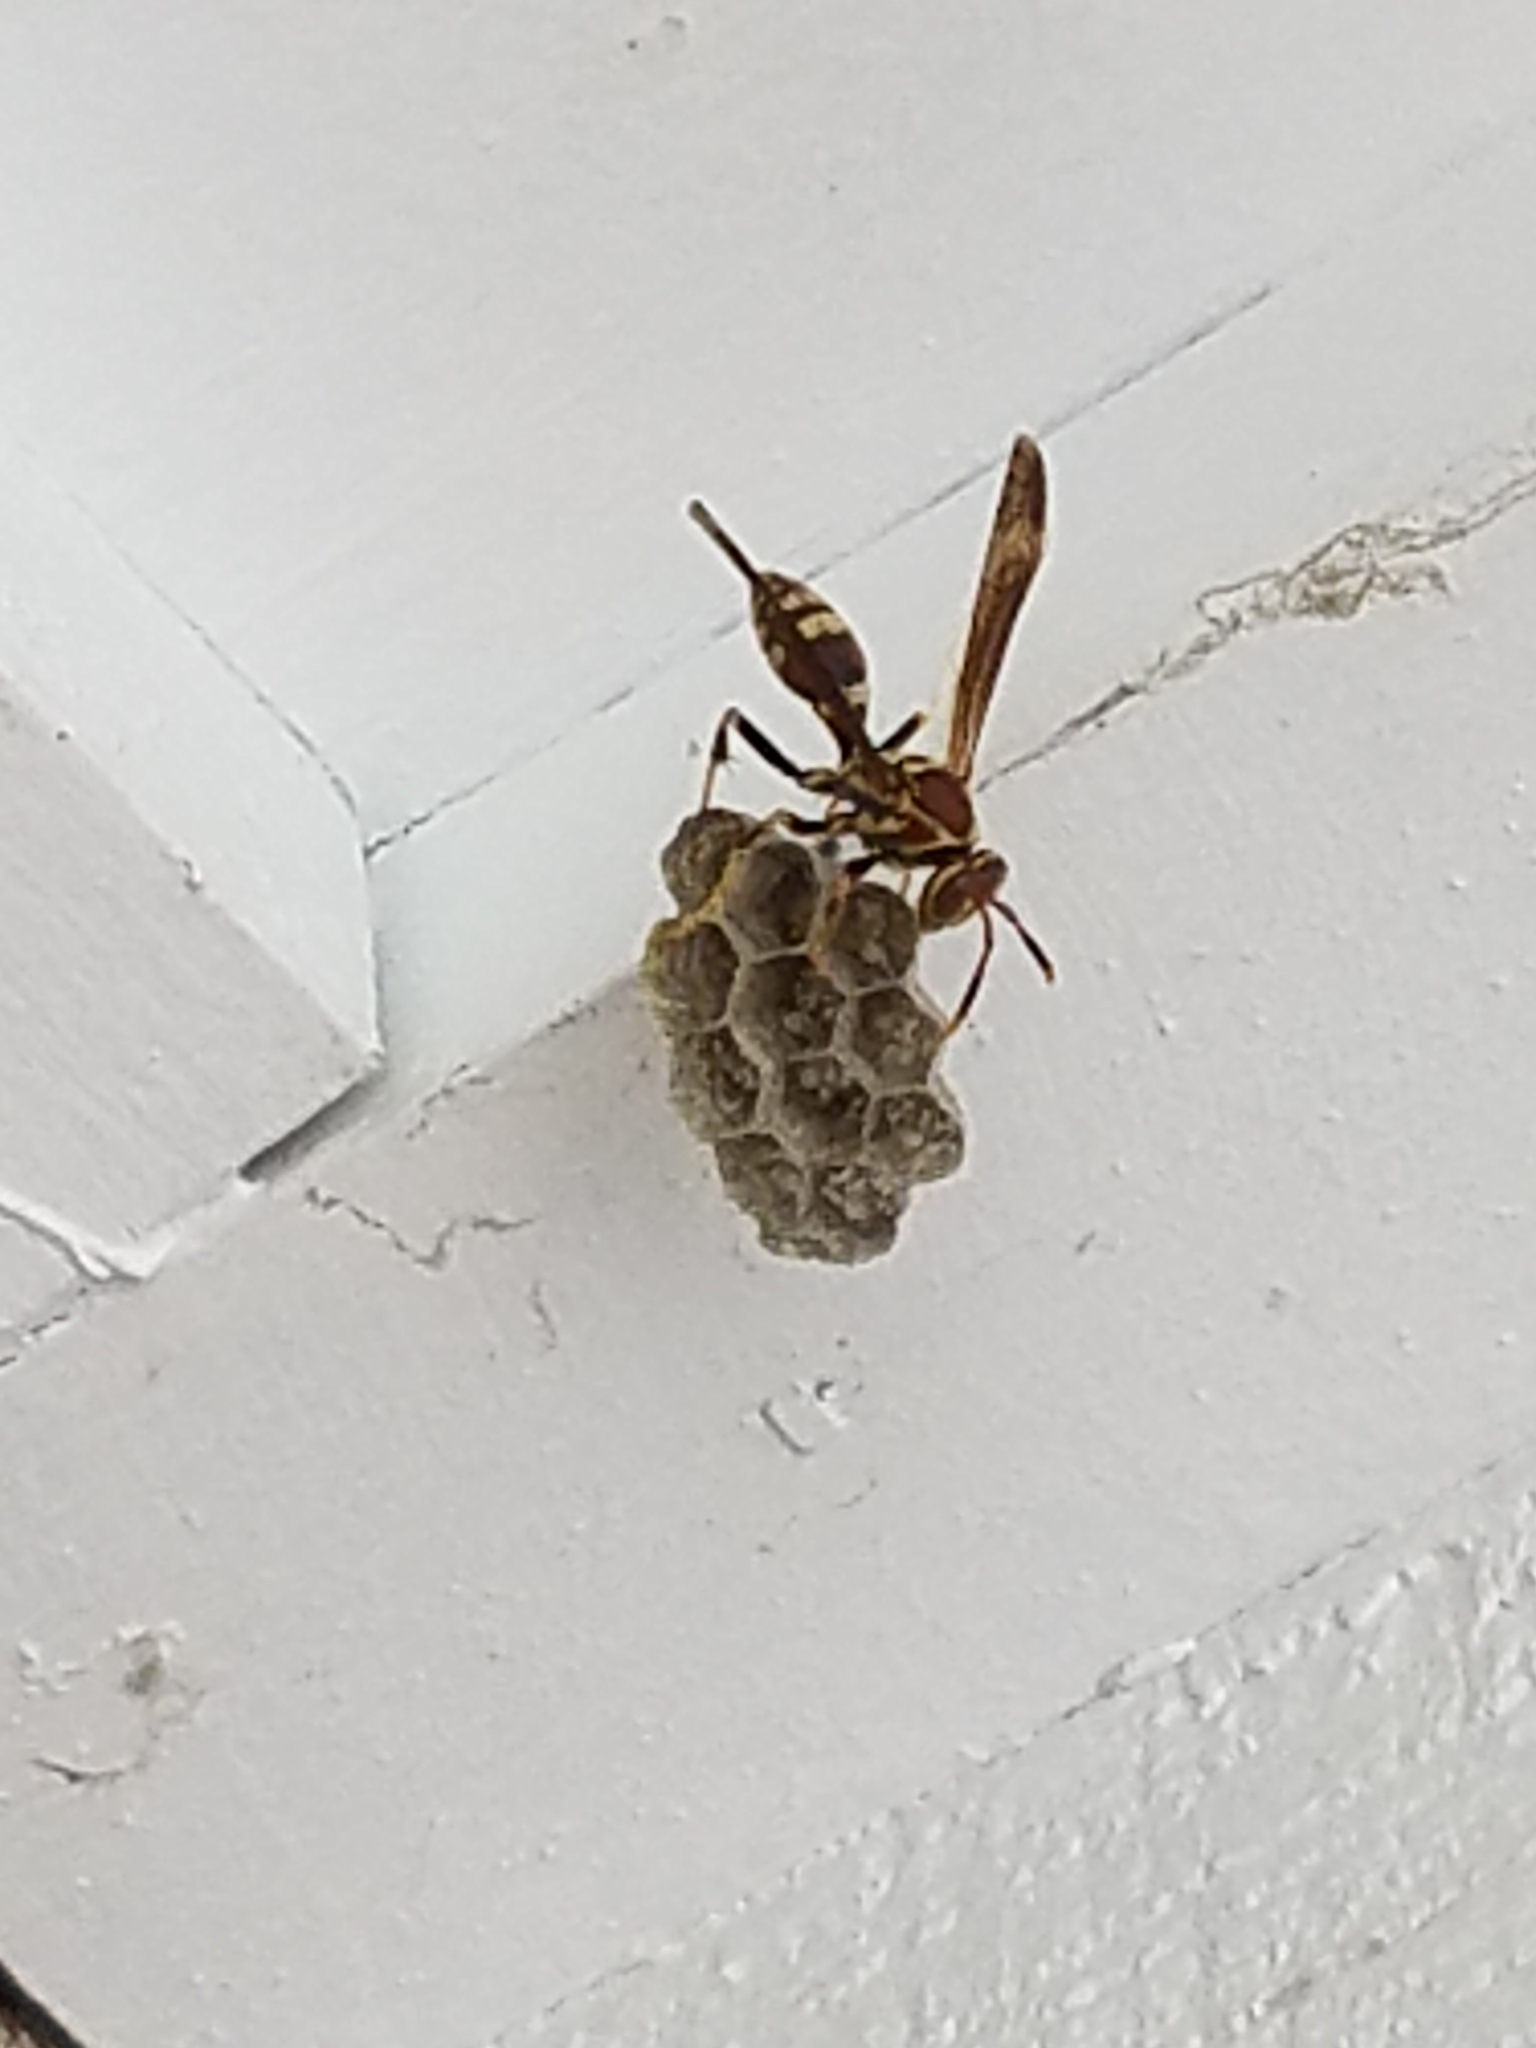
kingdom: Animalia
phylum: Arthropoda
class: Insecta
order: Hymenoptera
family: Eumenidae
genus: Polistes
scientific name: Polistes exclamans
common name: Paper wasp
